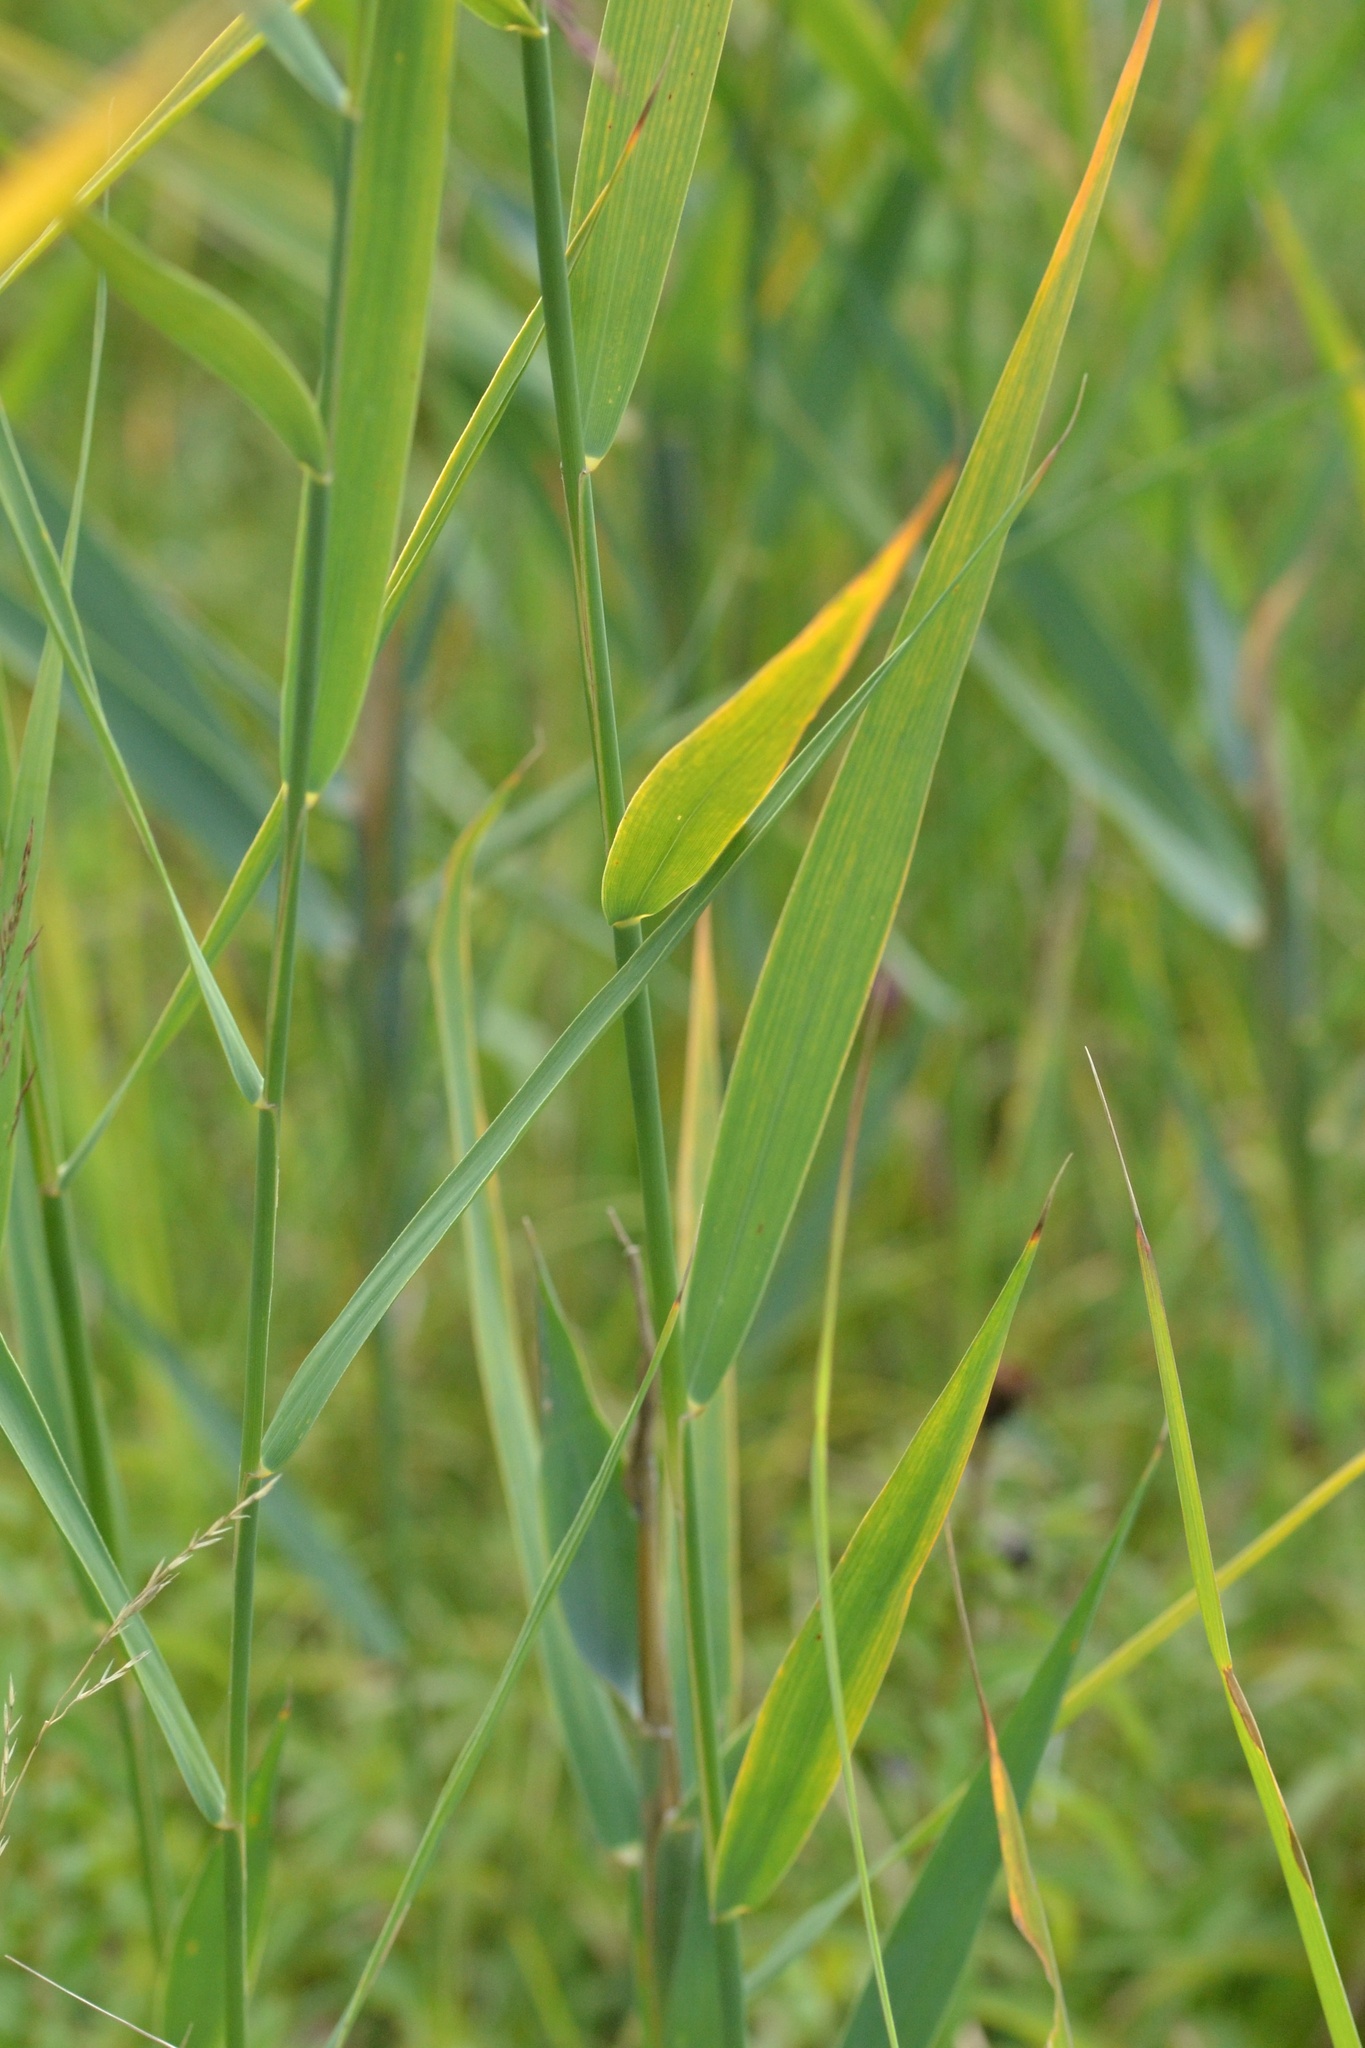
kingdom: Plantae
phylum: Tracheophyta
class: Liliopsida
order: Poales
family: Poaceae
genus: Phragmites
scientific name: Phragmites australis
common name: Common reed
